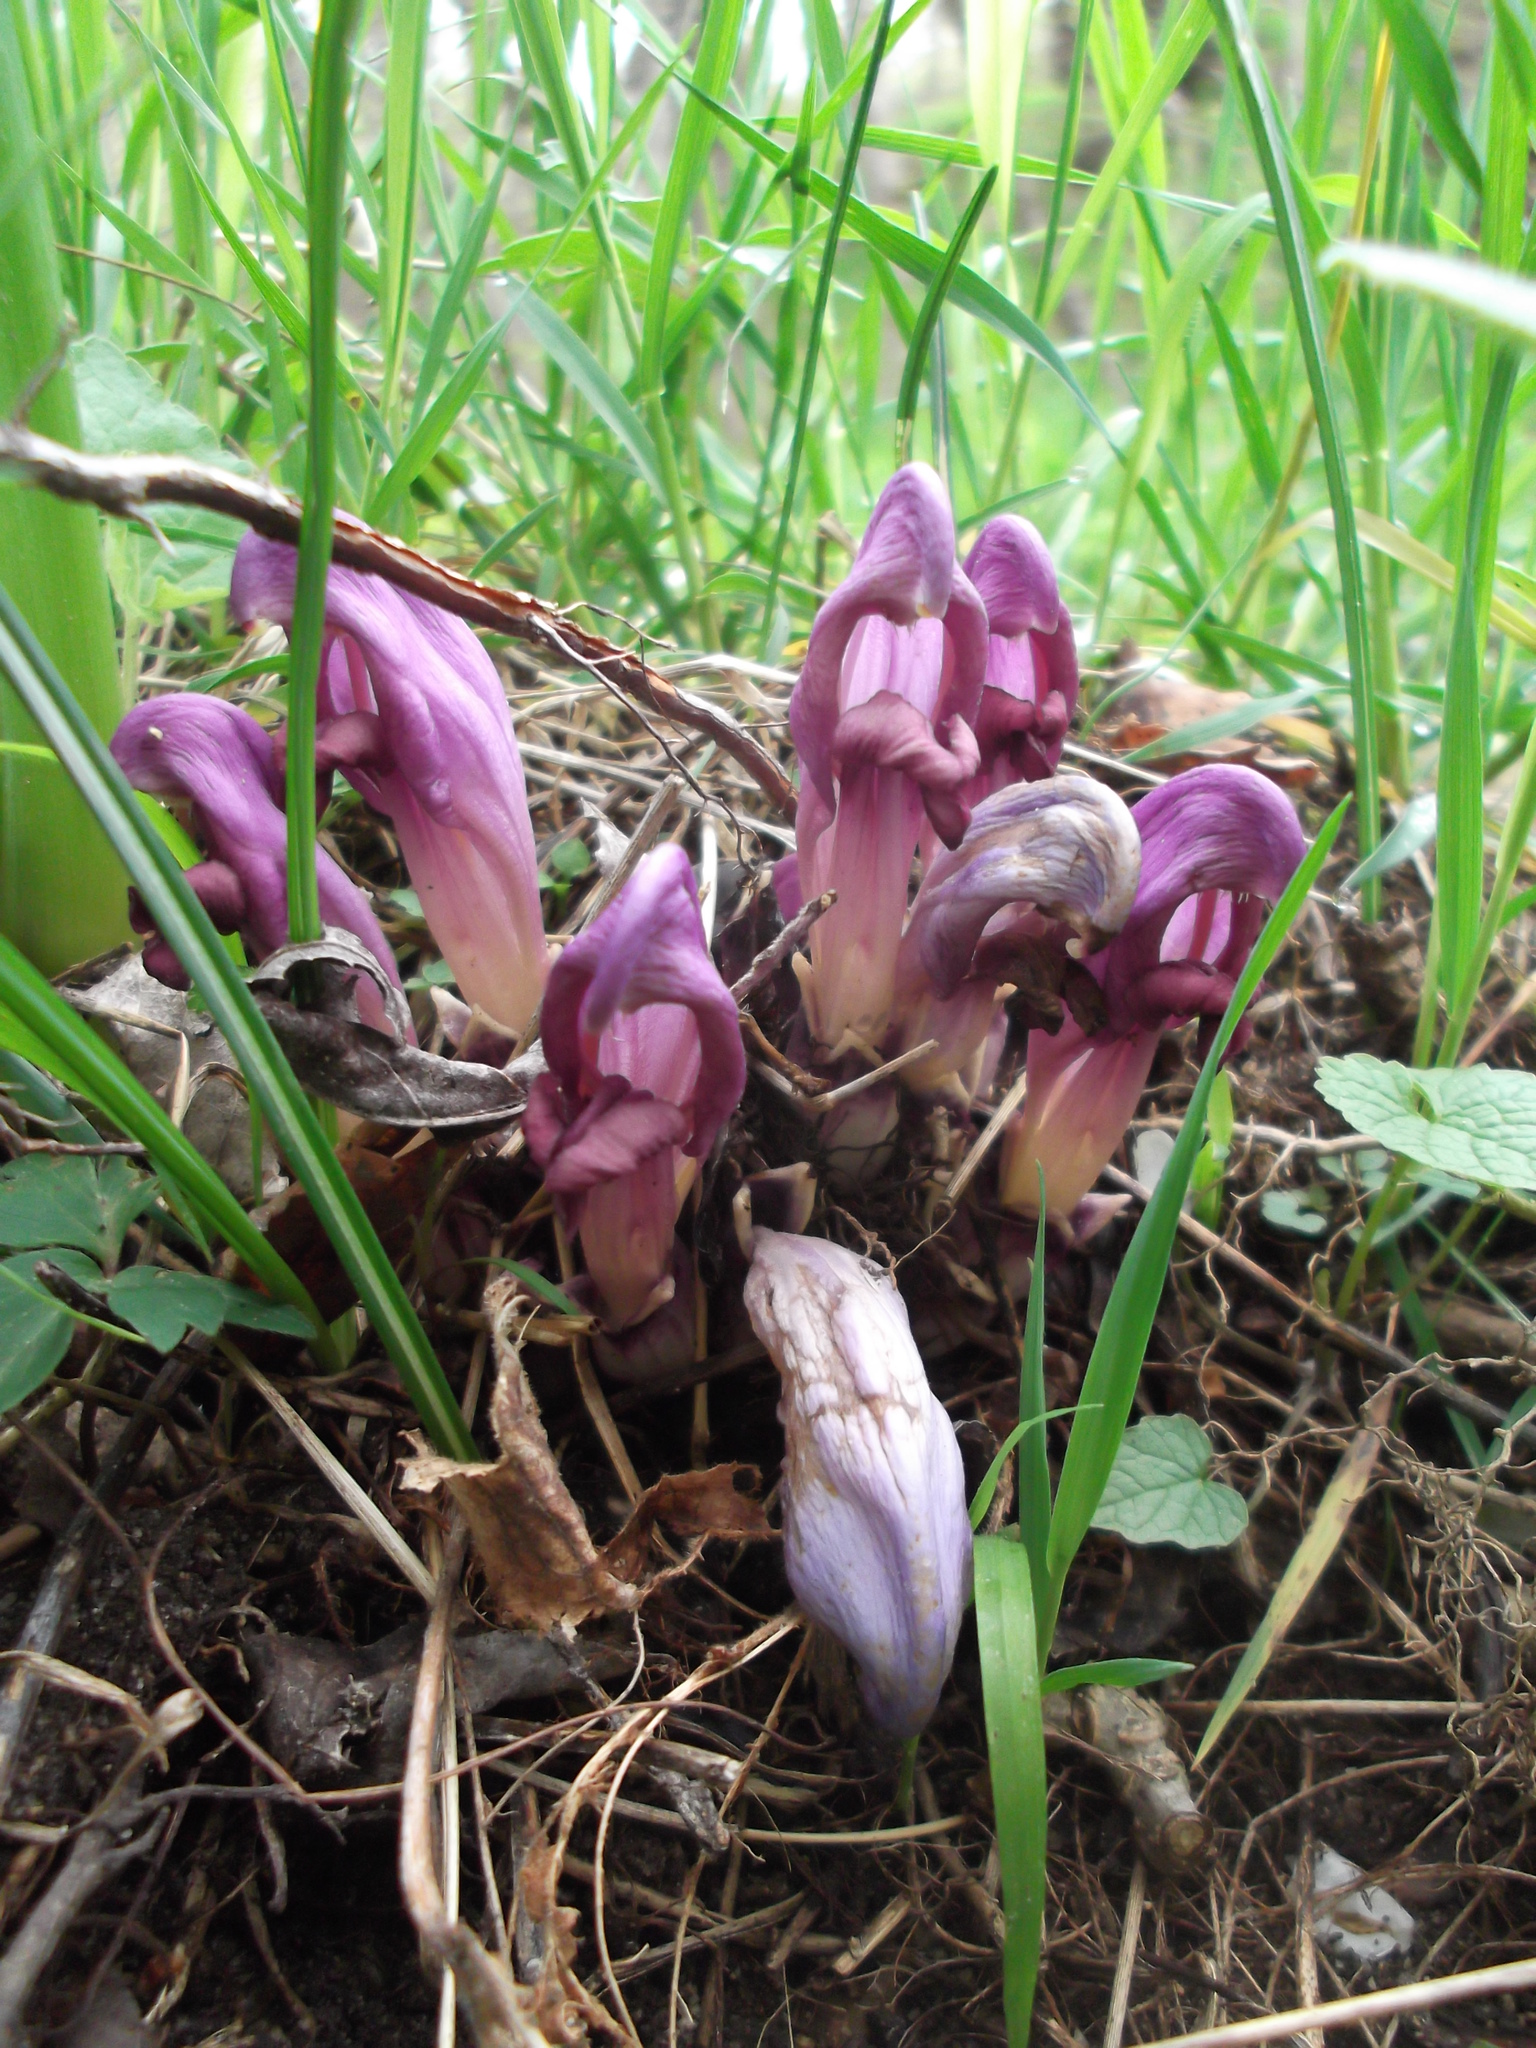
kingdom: Plantae
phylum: Tracheophyta
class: Magnoliopsida
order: Lamiales
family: Orobanchaceae
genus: Lathraea
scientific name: Lathraea clandestina
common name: Purple toothwort
